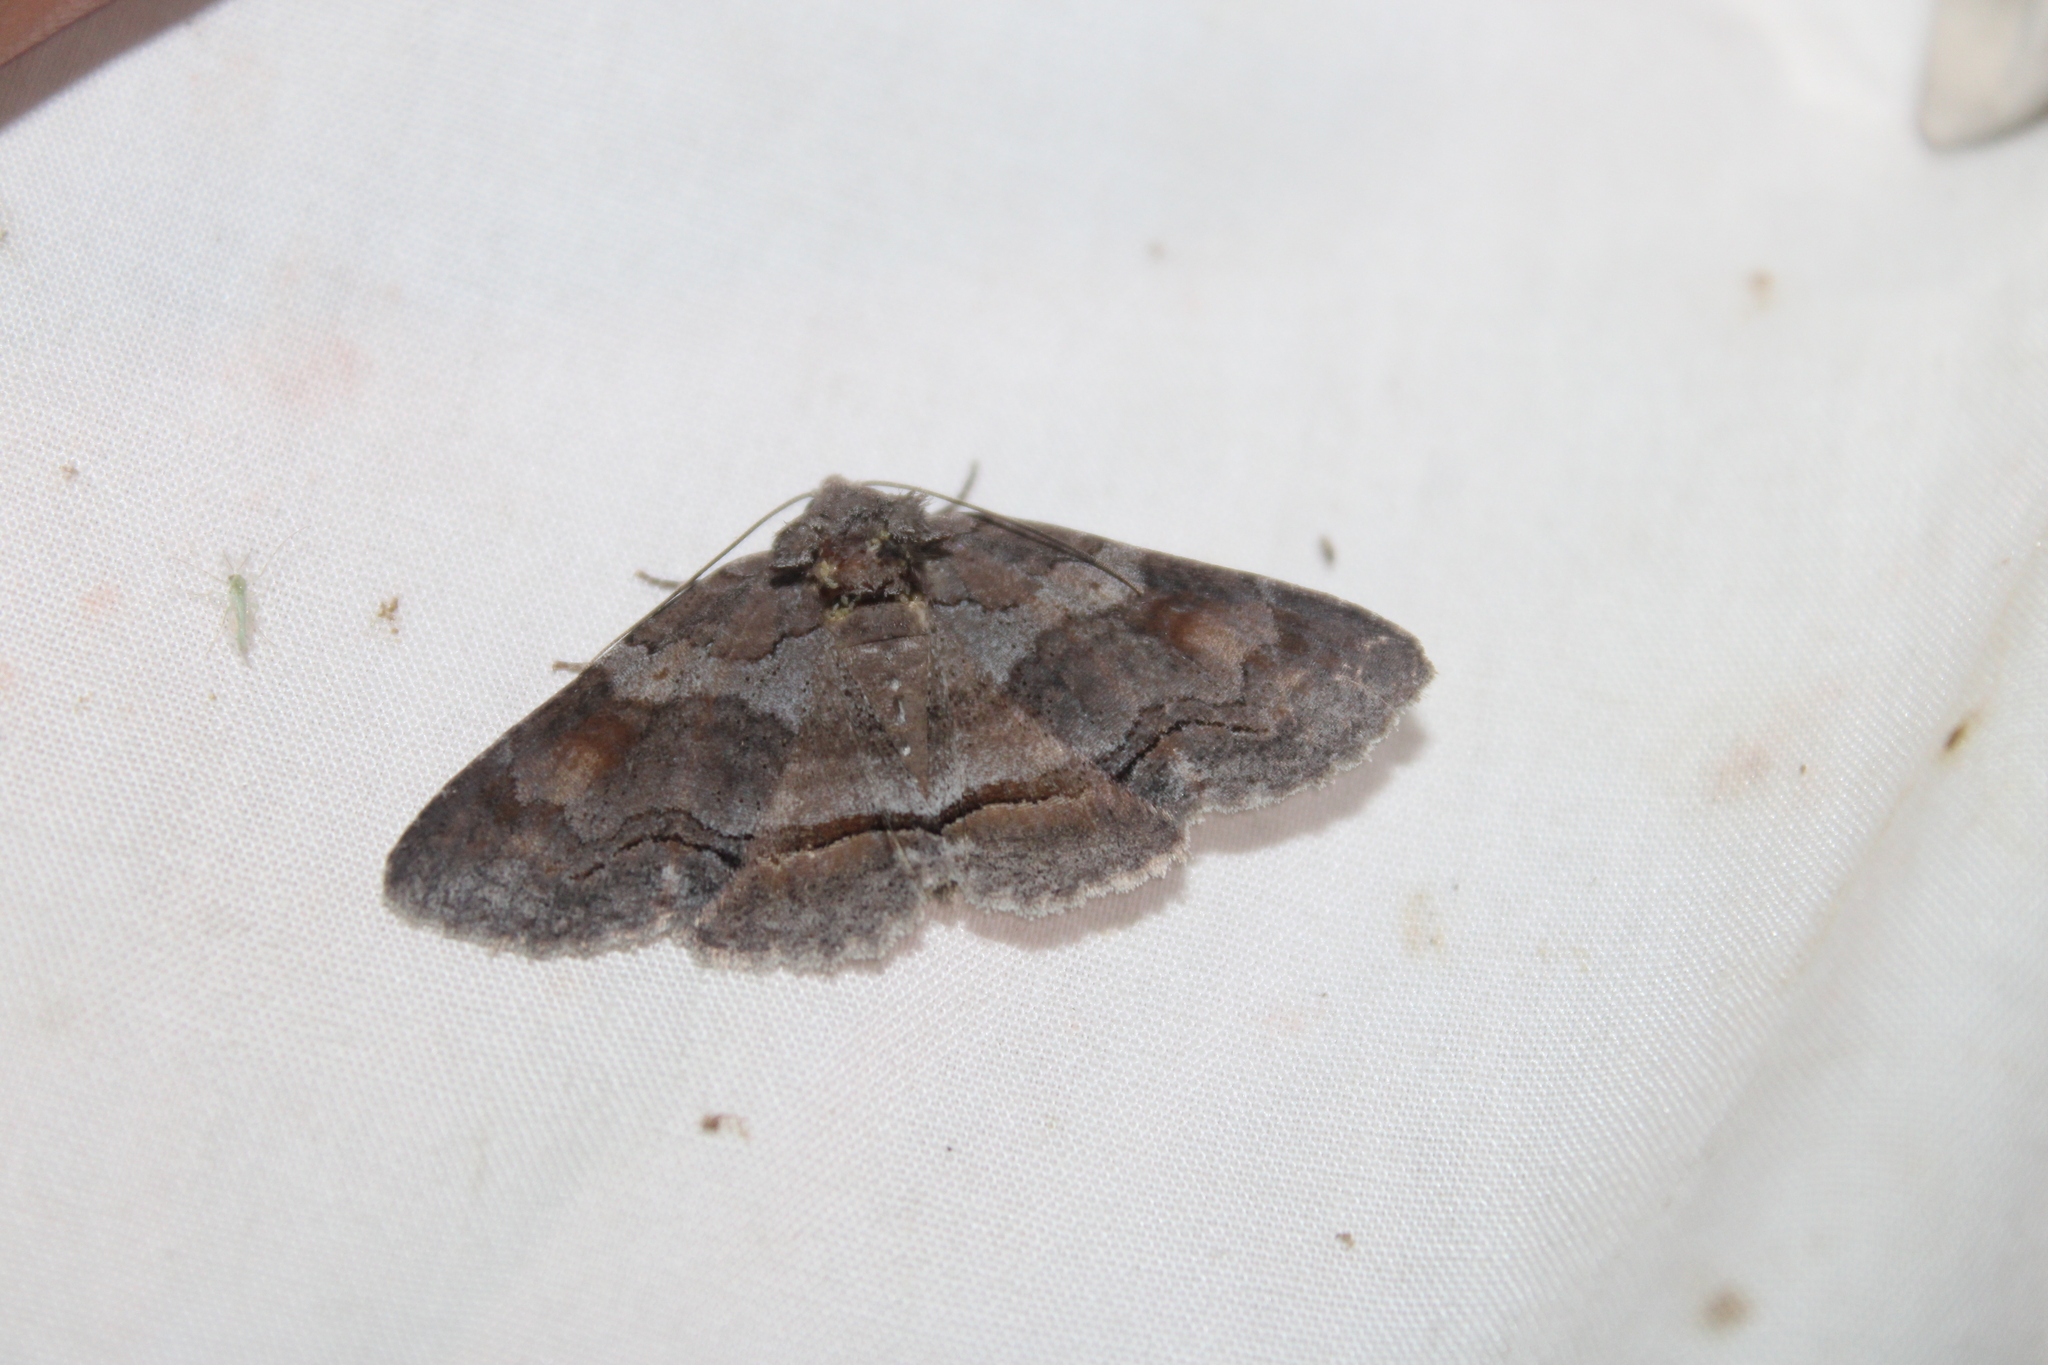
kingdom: Animalia
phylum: Arthropoda
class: Insecta
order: Lepidoptera
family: Erebidae
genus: Zale
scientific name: Zale submediana
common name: Gray spring zale
